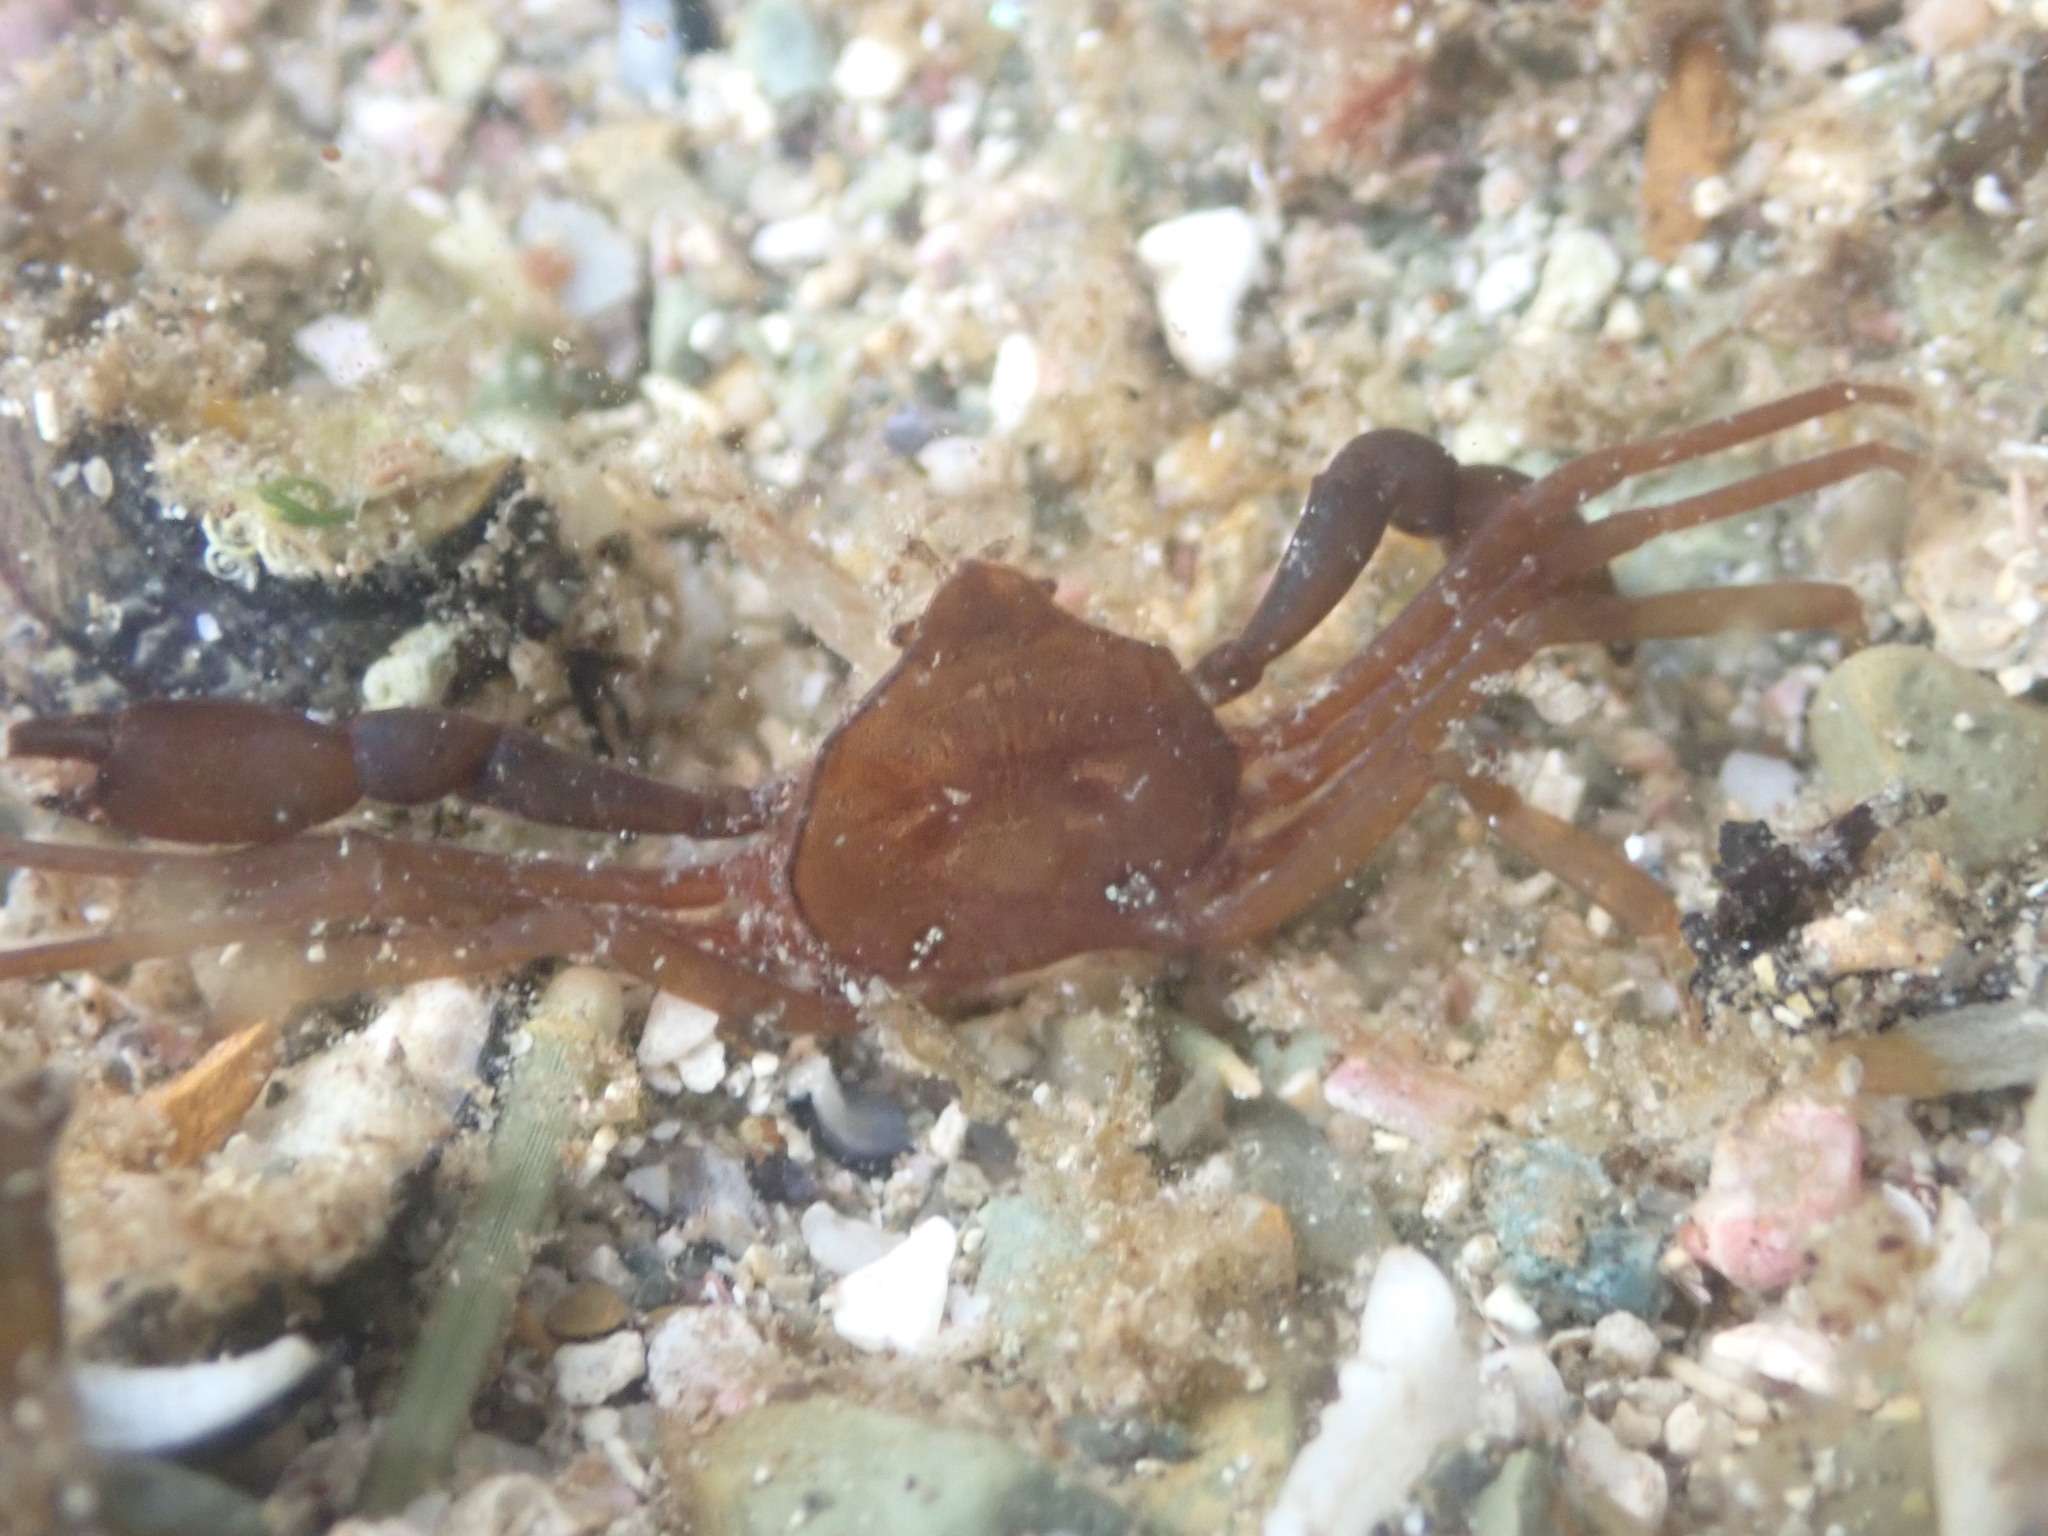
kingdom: Animalia
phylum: Arthropoda
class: Malacostraca
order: Decapoda
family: Hymenosomatidae
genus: Elamena
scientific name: Elamena producta
